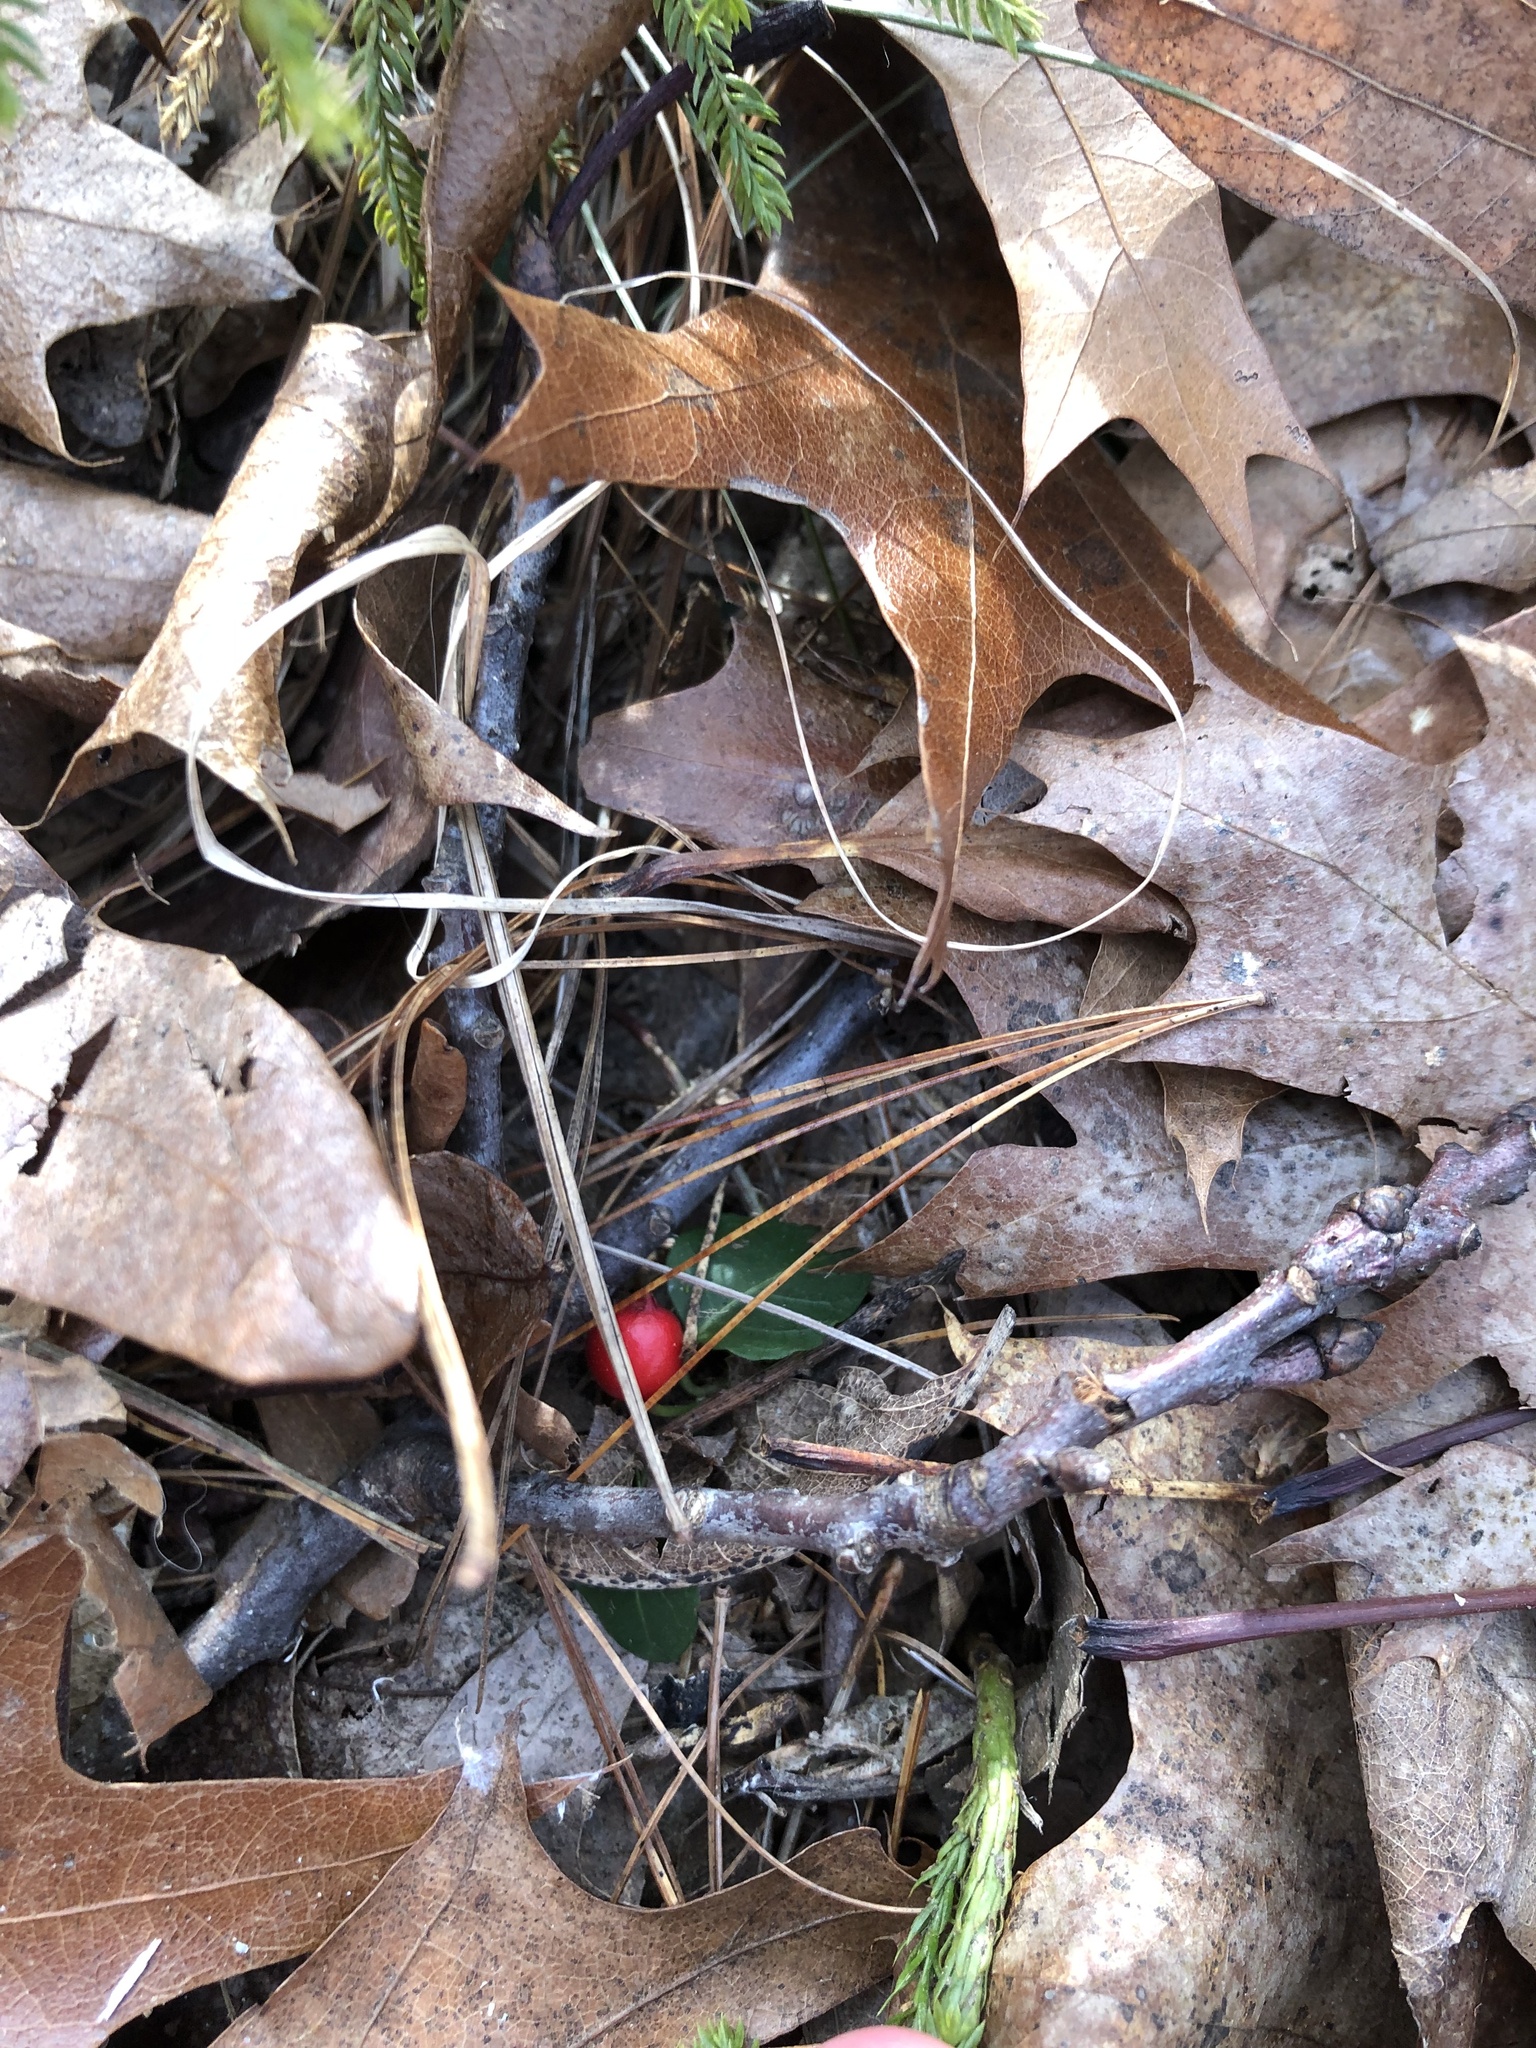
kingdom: Plantae
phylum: Tracheophyta
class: Magnoliopsida
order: Gentianales
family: Rubiaceae
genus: Mitchella
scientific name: Mitchella repens
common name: Partridge-berry
